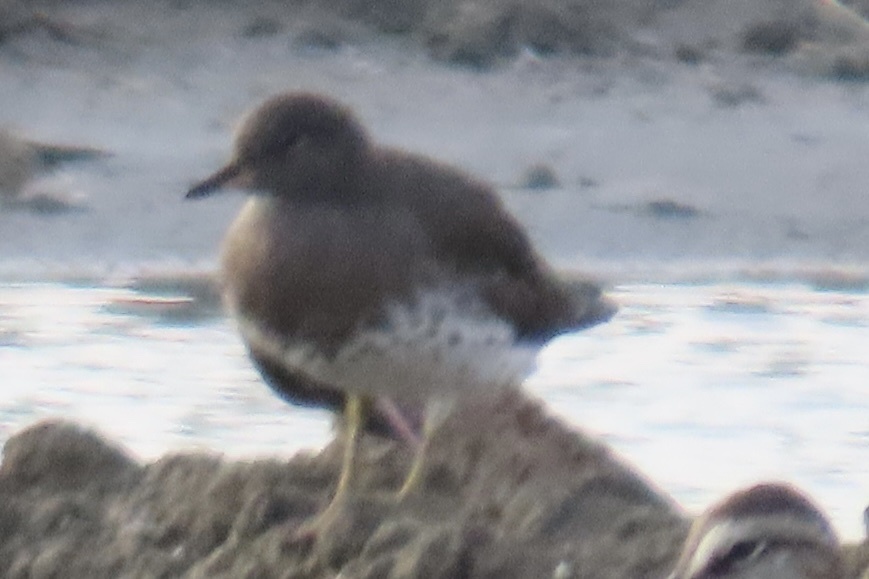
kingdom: Animalia
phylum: Chordata
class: Aves
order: Charadriiformes
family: Scolopacidae
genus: Calidris
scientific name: Calidris virgata
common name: Surfbird
